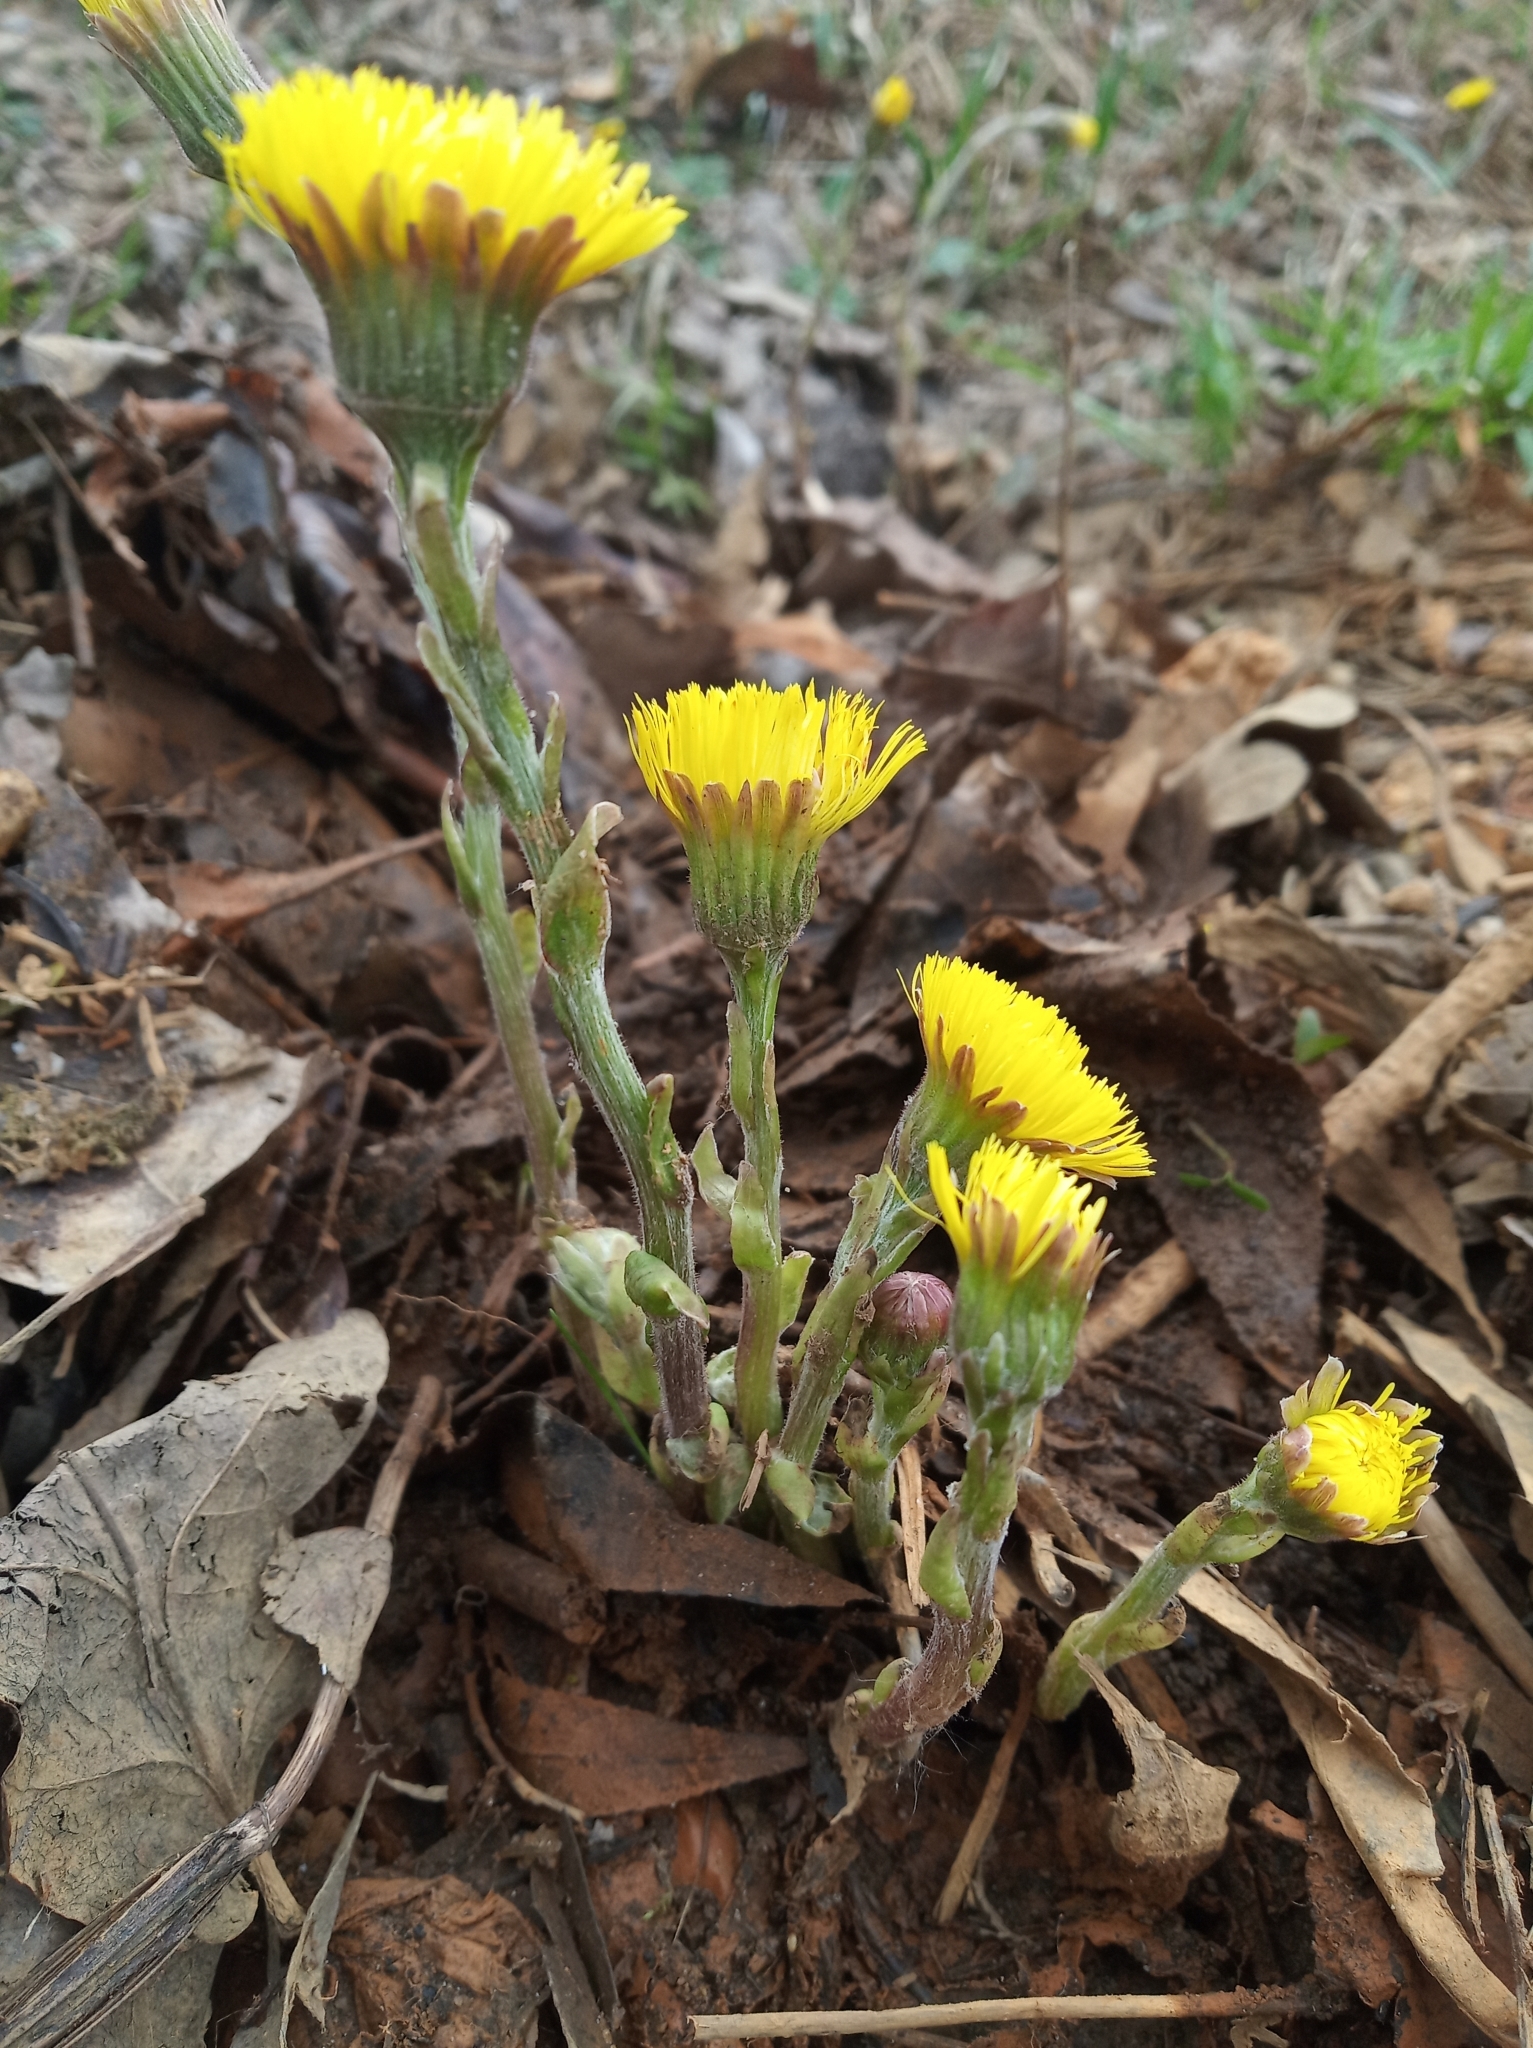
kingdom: Plantae
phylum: Tracheophyta
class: Magnoliopsida
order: Asterales
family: Asteraceae
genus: Tussilago
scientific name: Tussilago farfara
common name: Coltsfoot
